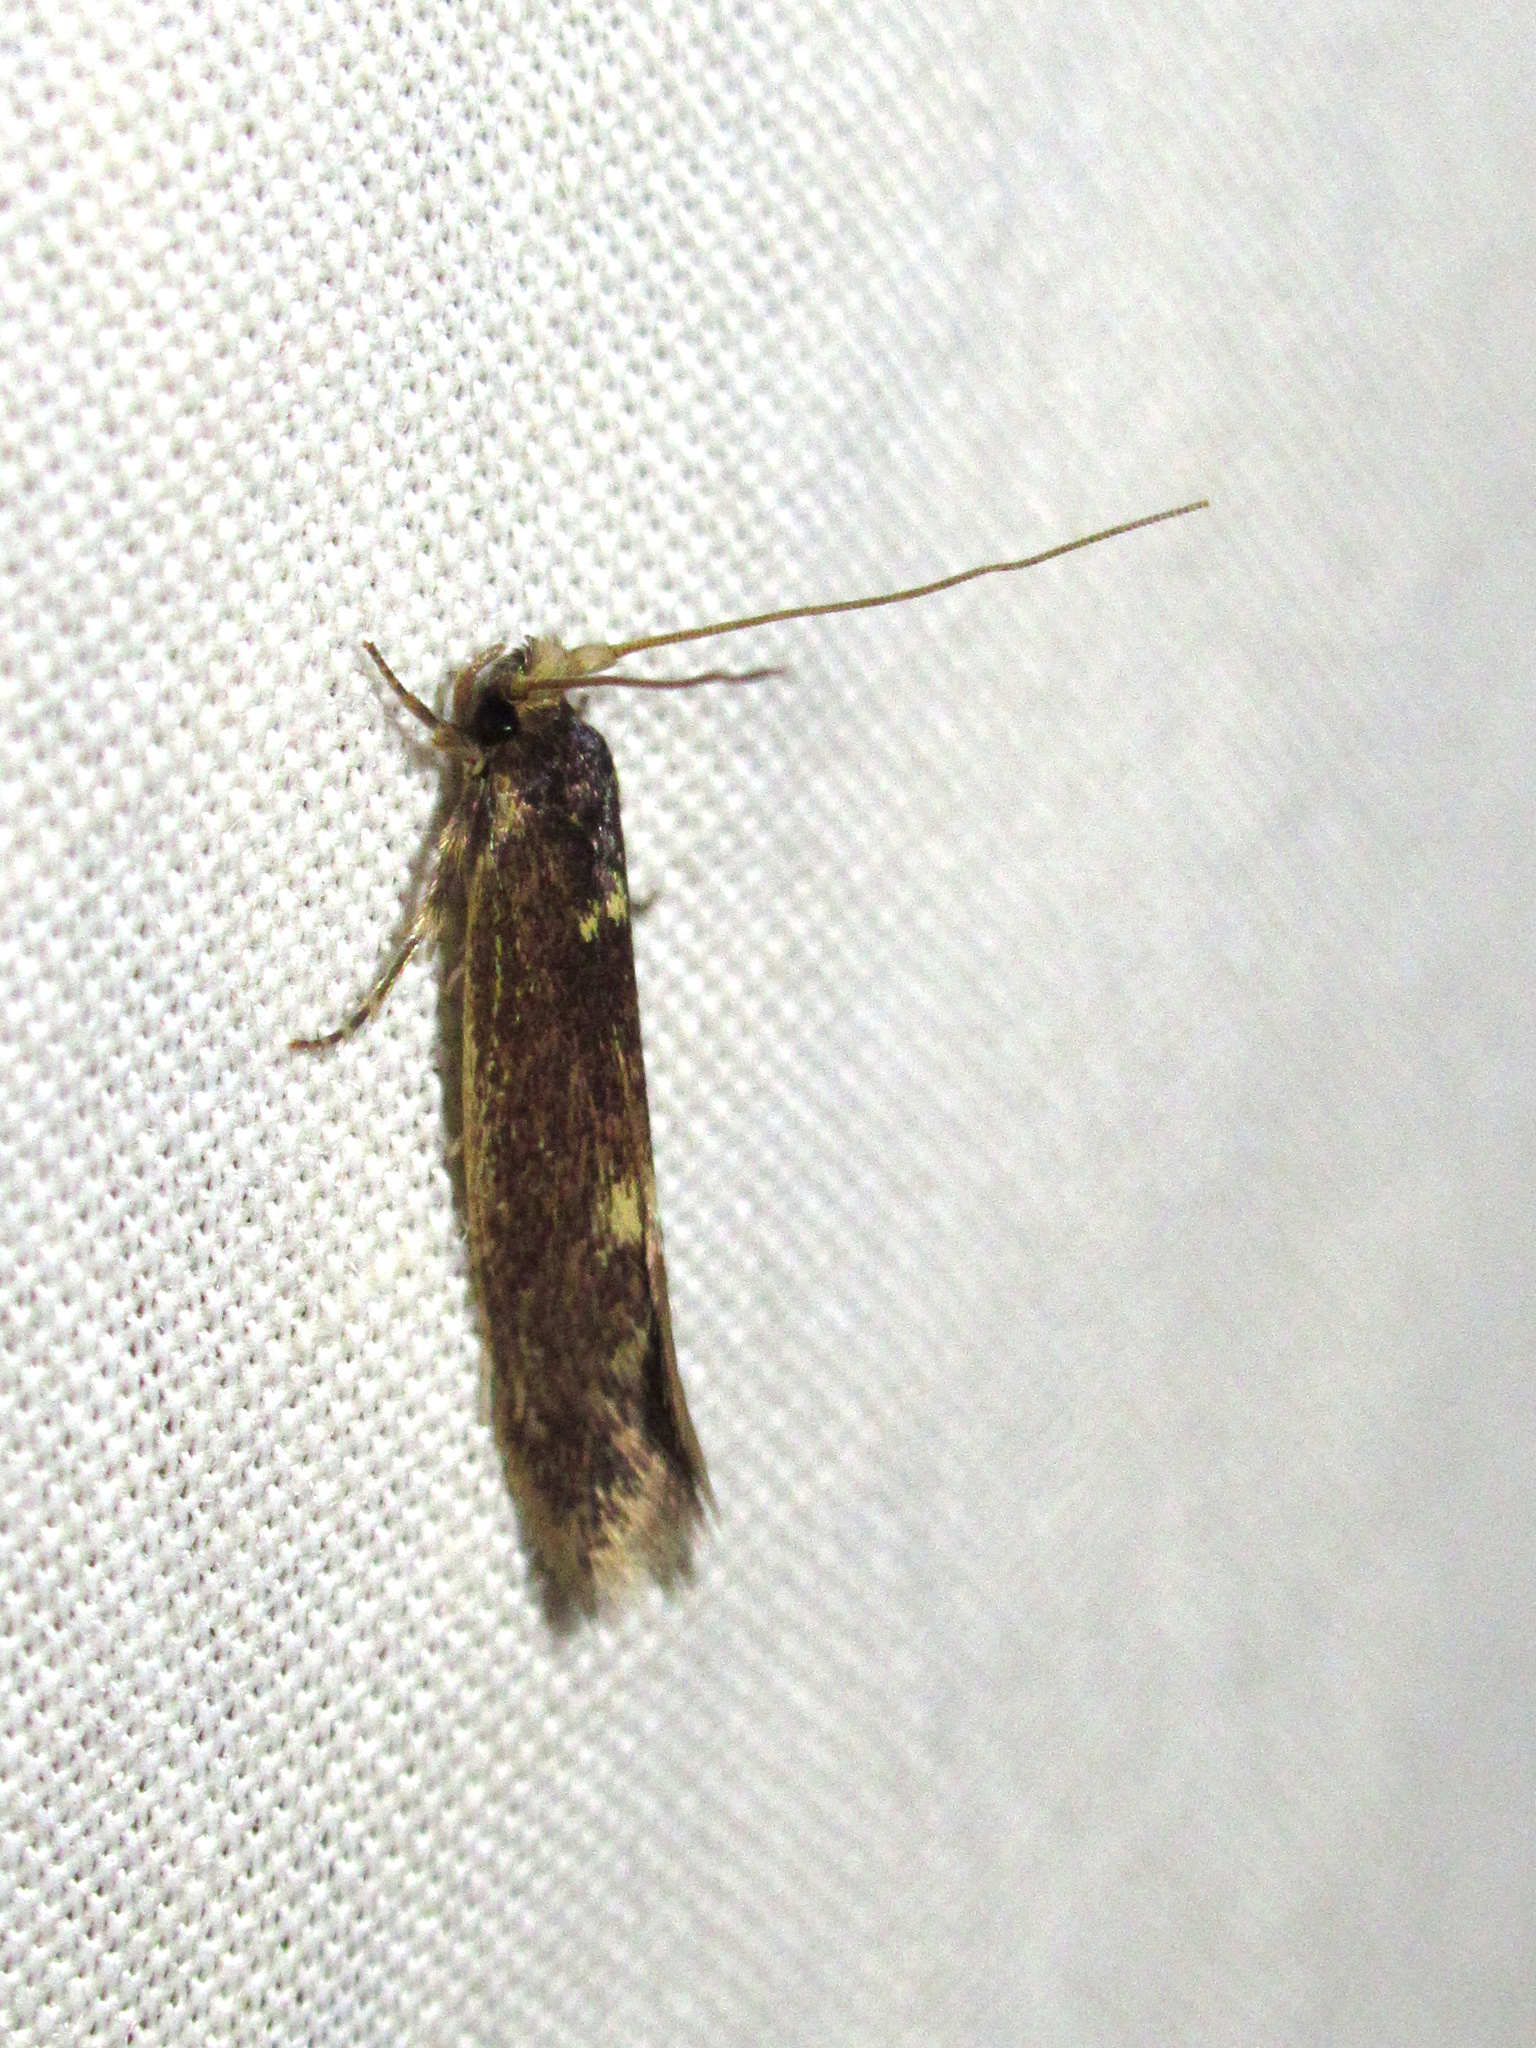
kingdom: Animalia
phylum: Arthropoda
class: Insecta
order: Lepidoptera
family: Tineidae
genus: Opogona
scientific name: Opogona omoscopa
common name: Moth
